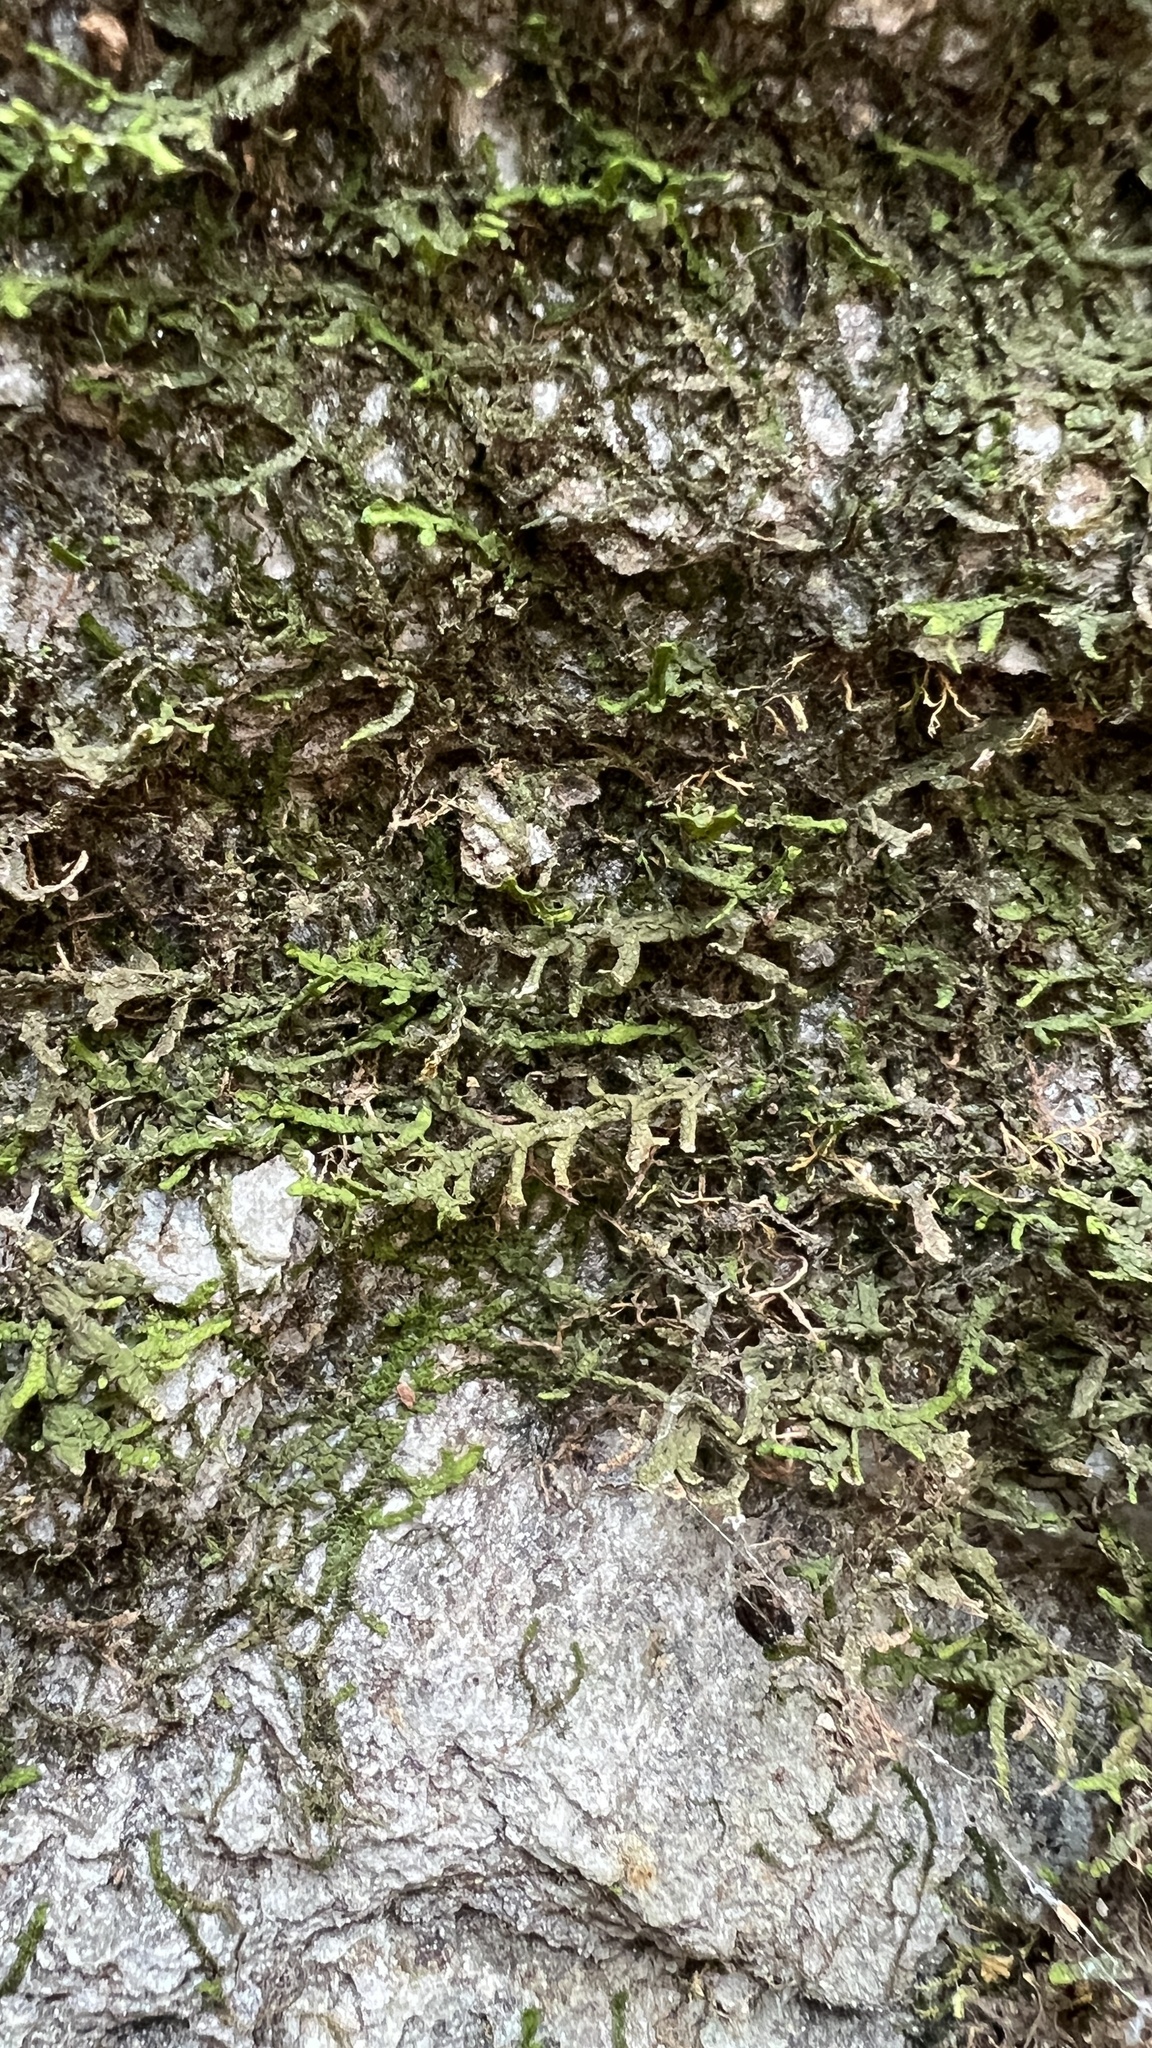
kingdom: Plantae
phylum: Marchantiophyta
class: Jungermanniopsida
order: Porellales
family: Porellaceae
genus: Porella
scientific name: Porella platyphylla
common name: Wall scalewort
